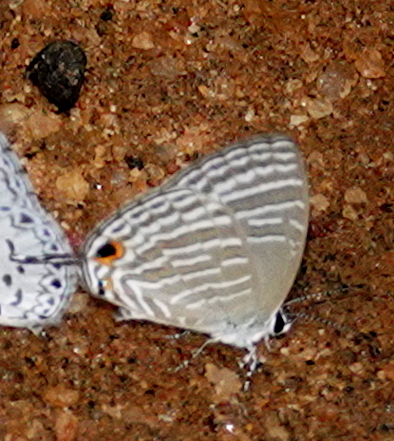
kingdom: Animalia
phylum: Arthropoda
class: Insecta
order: Lepidoptera
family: Lycaenidae
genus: Jamides
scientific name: Jamides celeno
